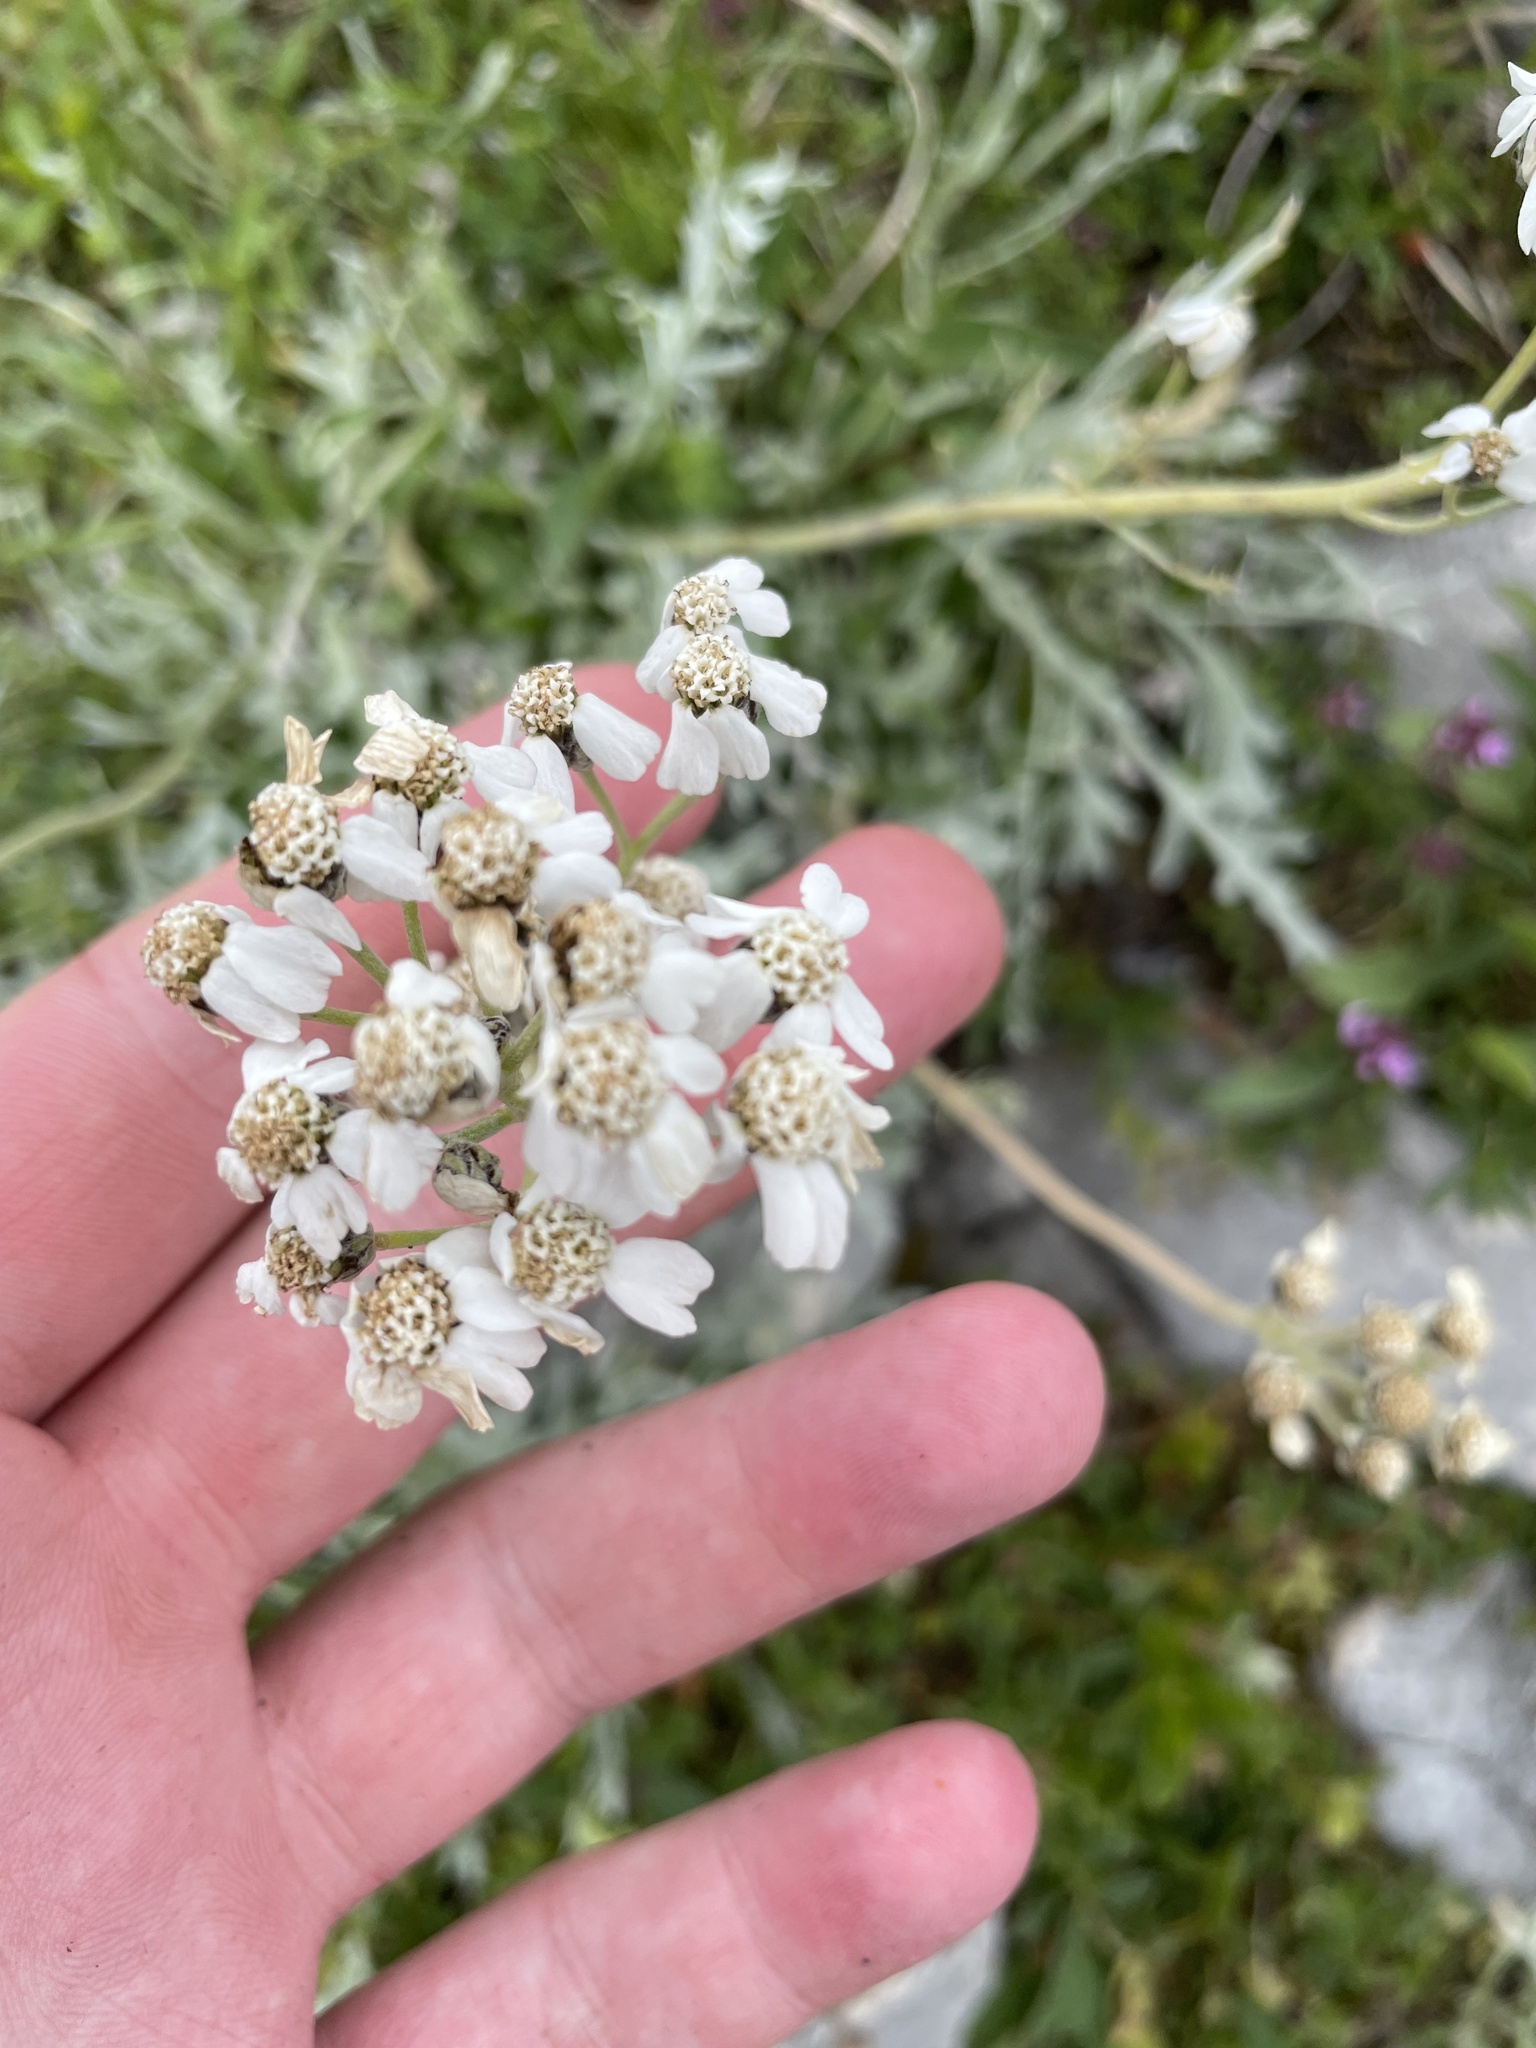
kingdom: Plantae
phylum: Tracheophyta
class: Magnoliopsida
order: Asterales
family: Asteraceae
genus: Achillea
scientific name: Achillea clavennae
